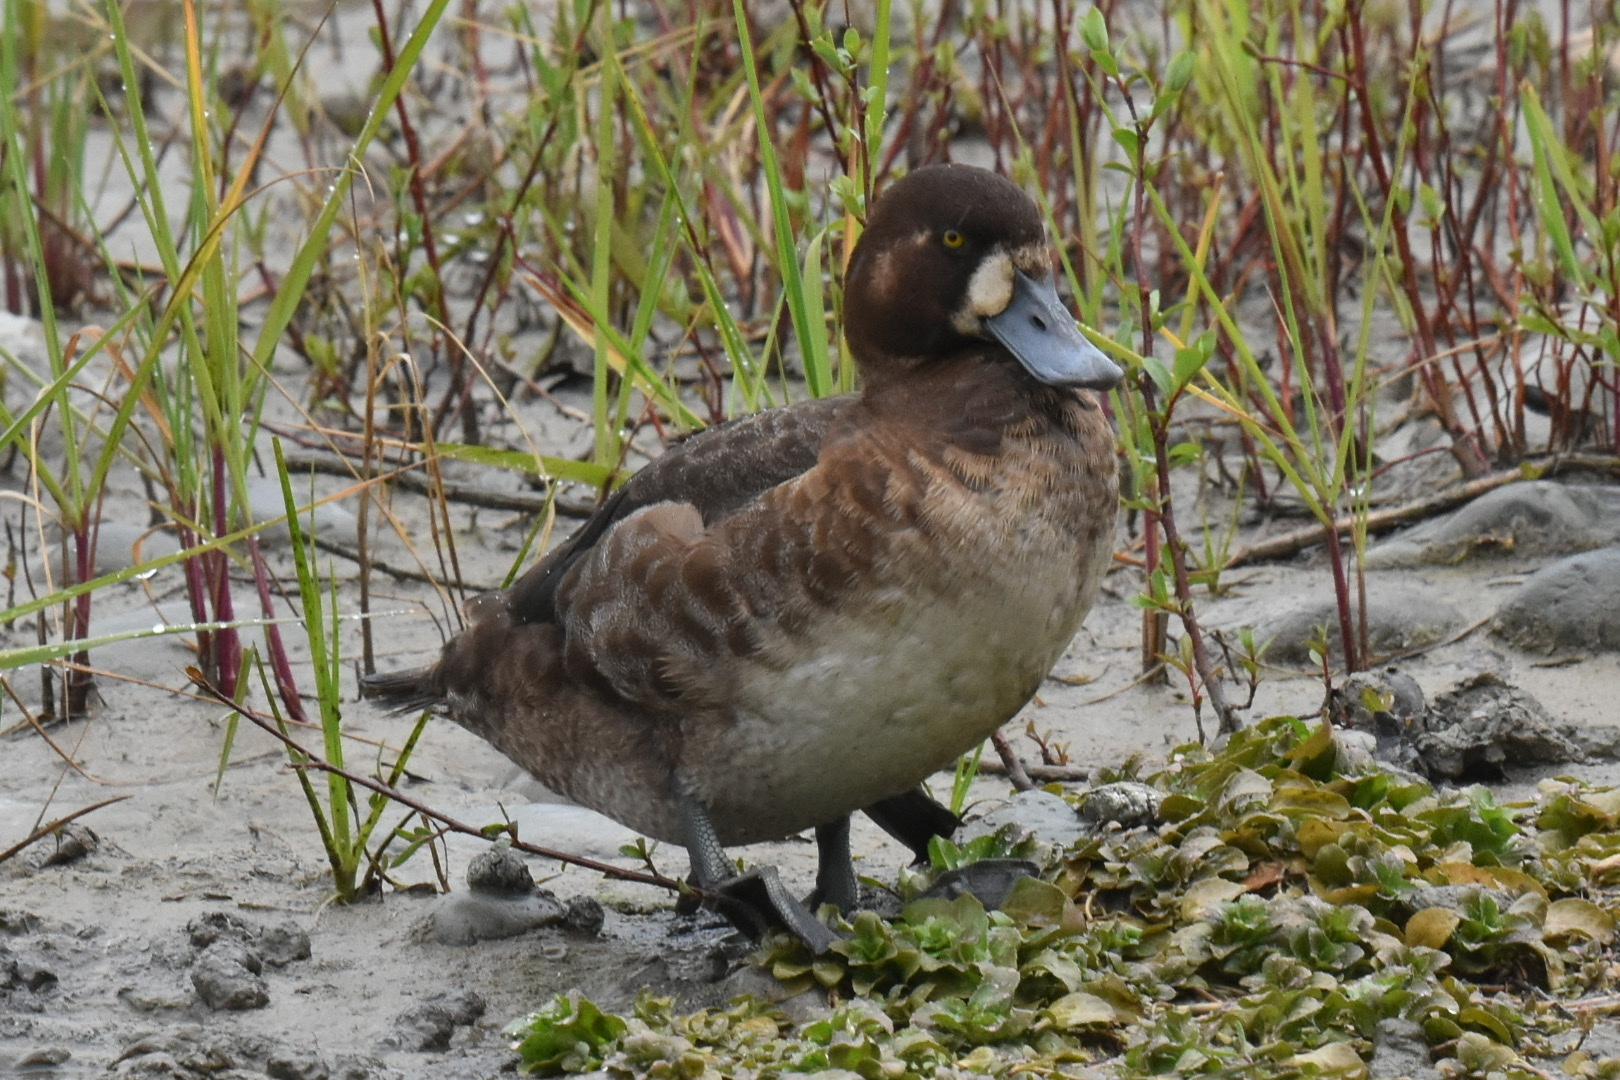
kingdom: Animalia
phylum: Chordata
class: Aves
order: Anseriformes
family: Anatidae
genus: Aythya
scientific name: Aythya marila
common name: Greater scaup
